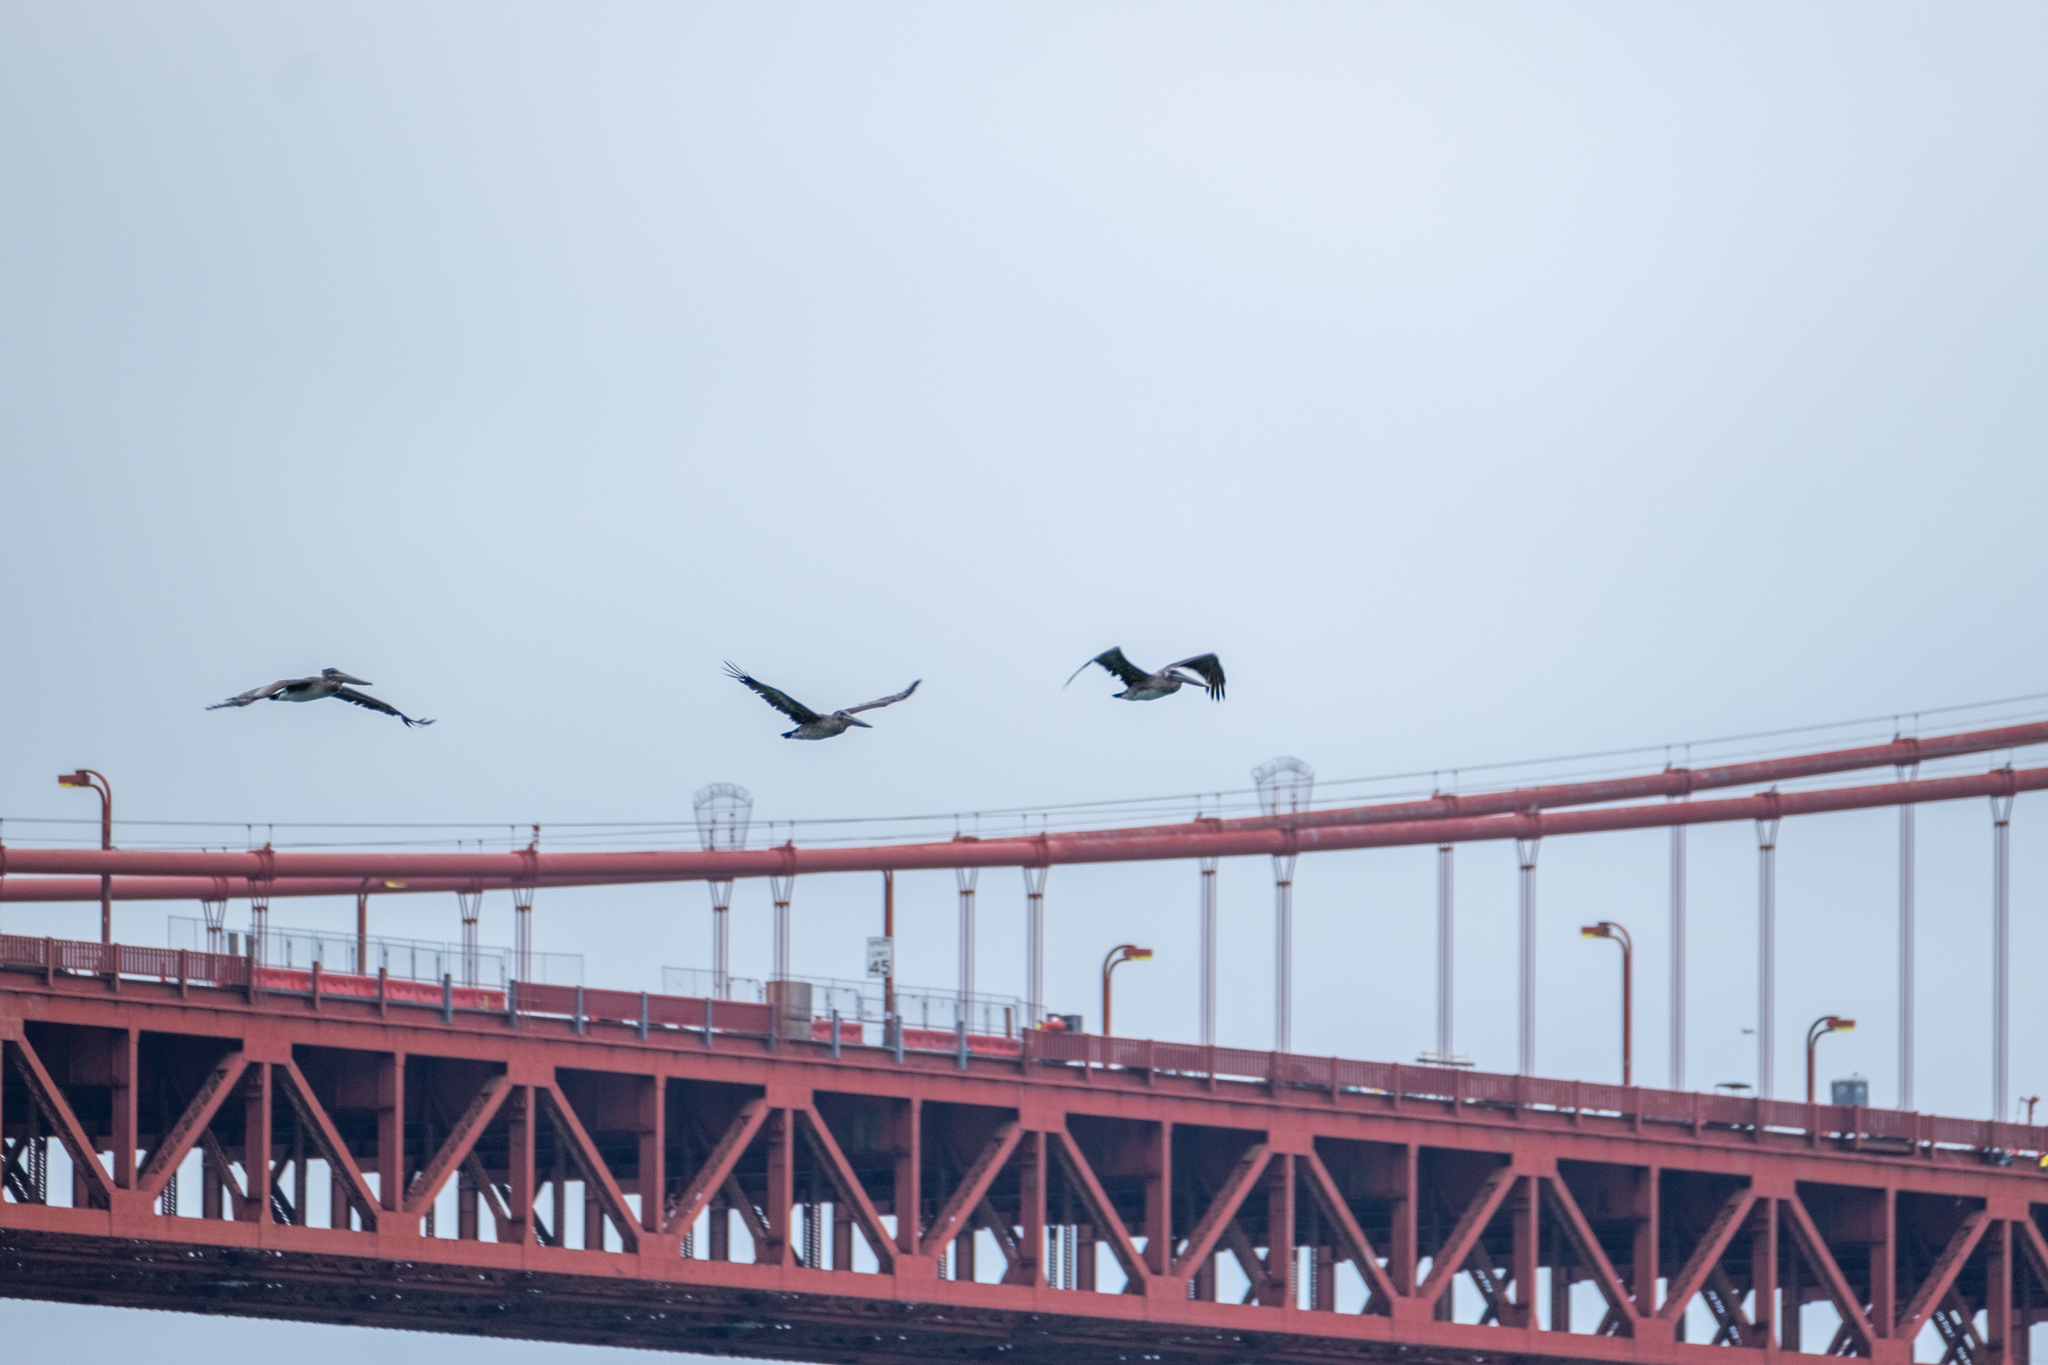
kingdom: Animalia
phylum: Chordata
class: Aves
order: Pelecaniformes
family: Pelecanidae
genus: Pelecanus
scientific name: Pelecanus occidentalis
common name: Brown pelican
